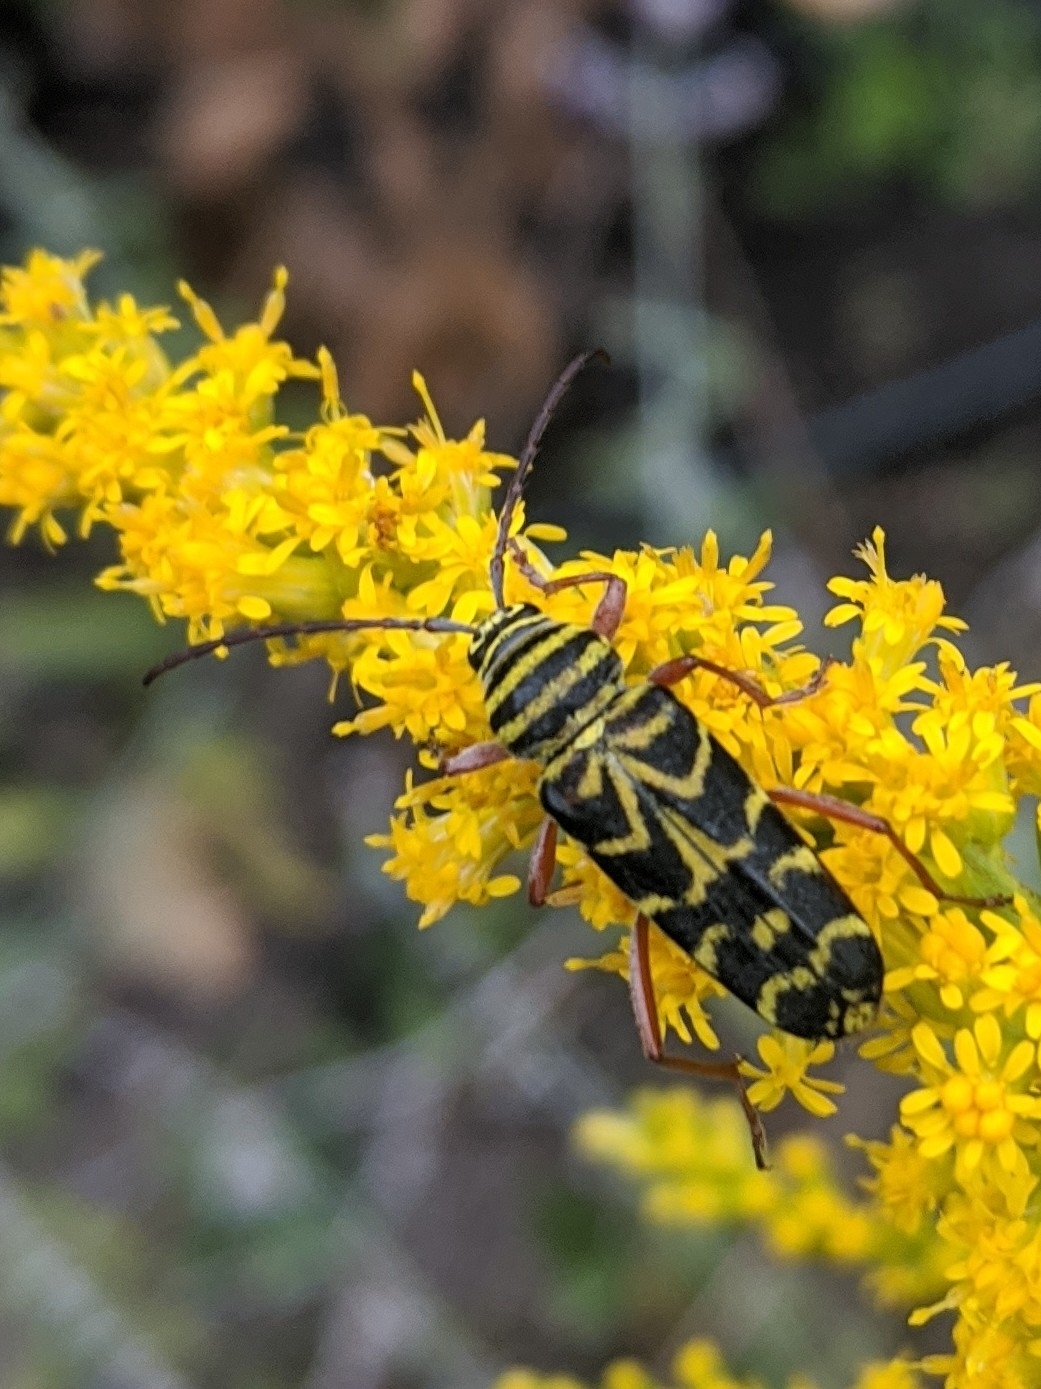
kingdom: Animalia
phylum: Arthropoda
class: Insecta
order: Coleoptera
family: Cerambycidae
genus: Megacyllene
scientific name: Megacyllene robiniae
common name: Locust borer
